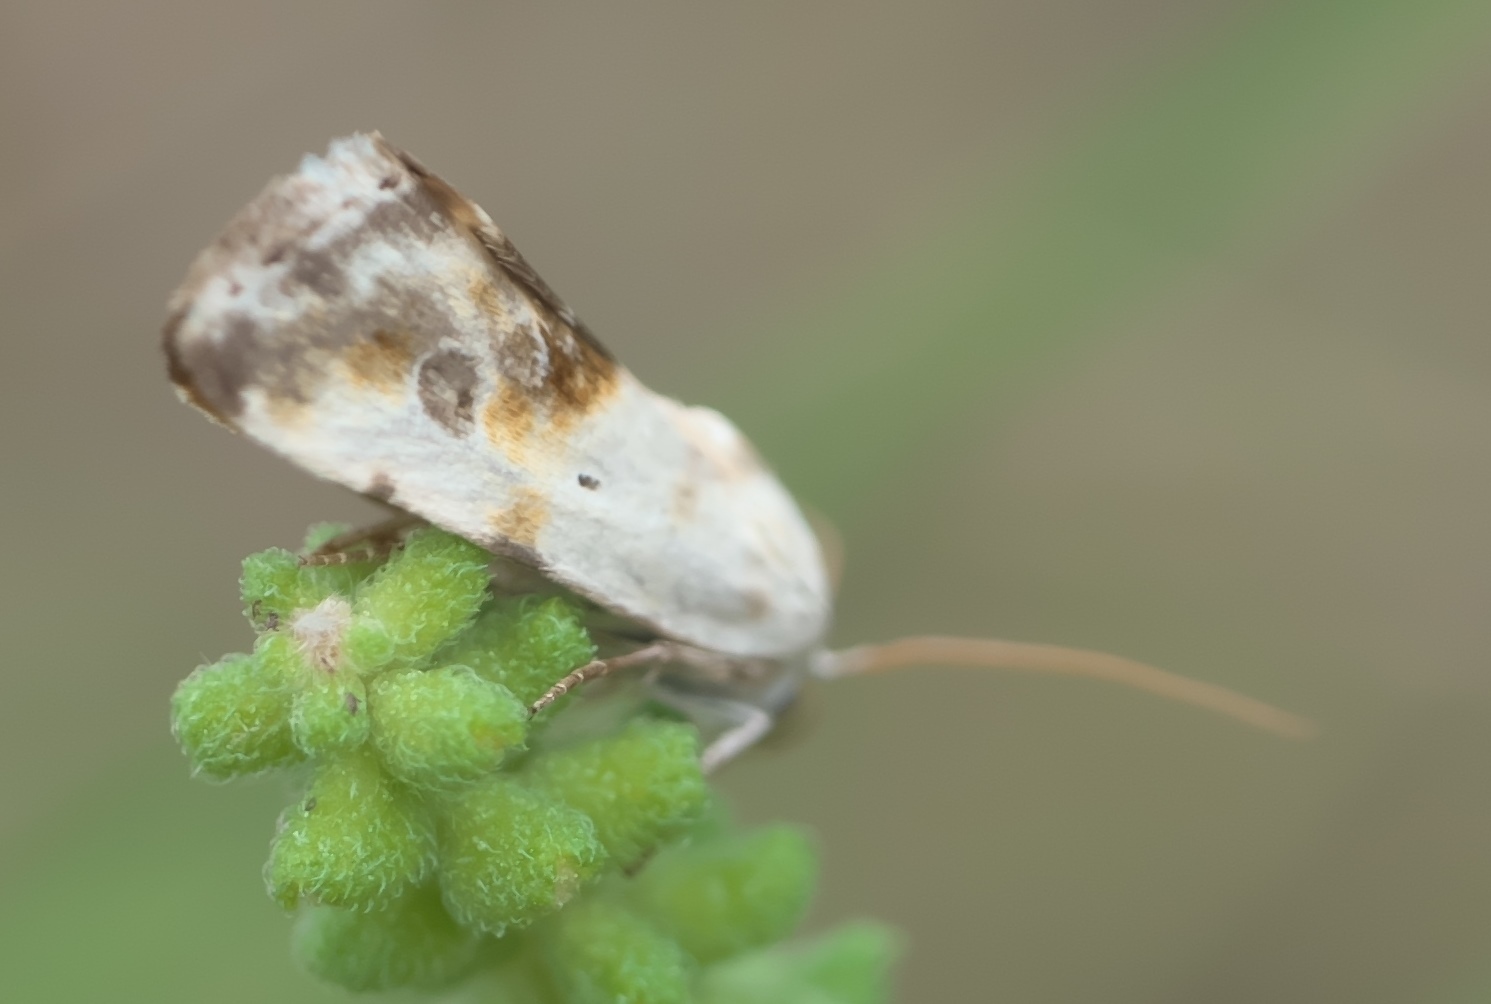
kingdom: Animalia
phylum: Arthropoda
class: Insecta
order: Lepidoptera
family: Noctuidae
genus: Acontia
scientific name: Acontia candefacta
